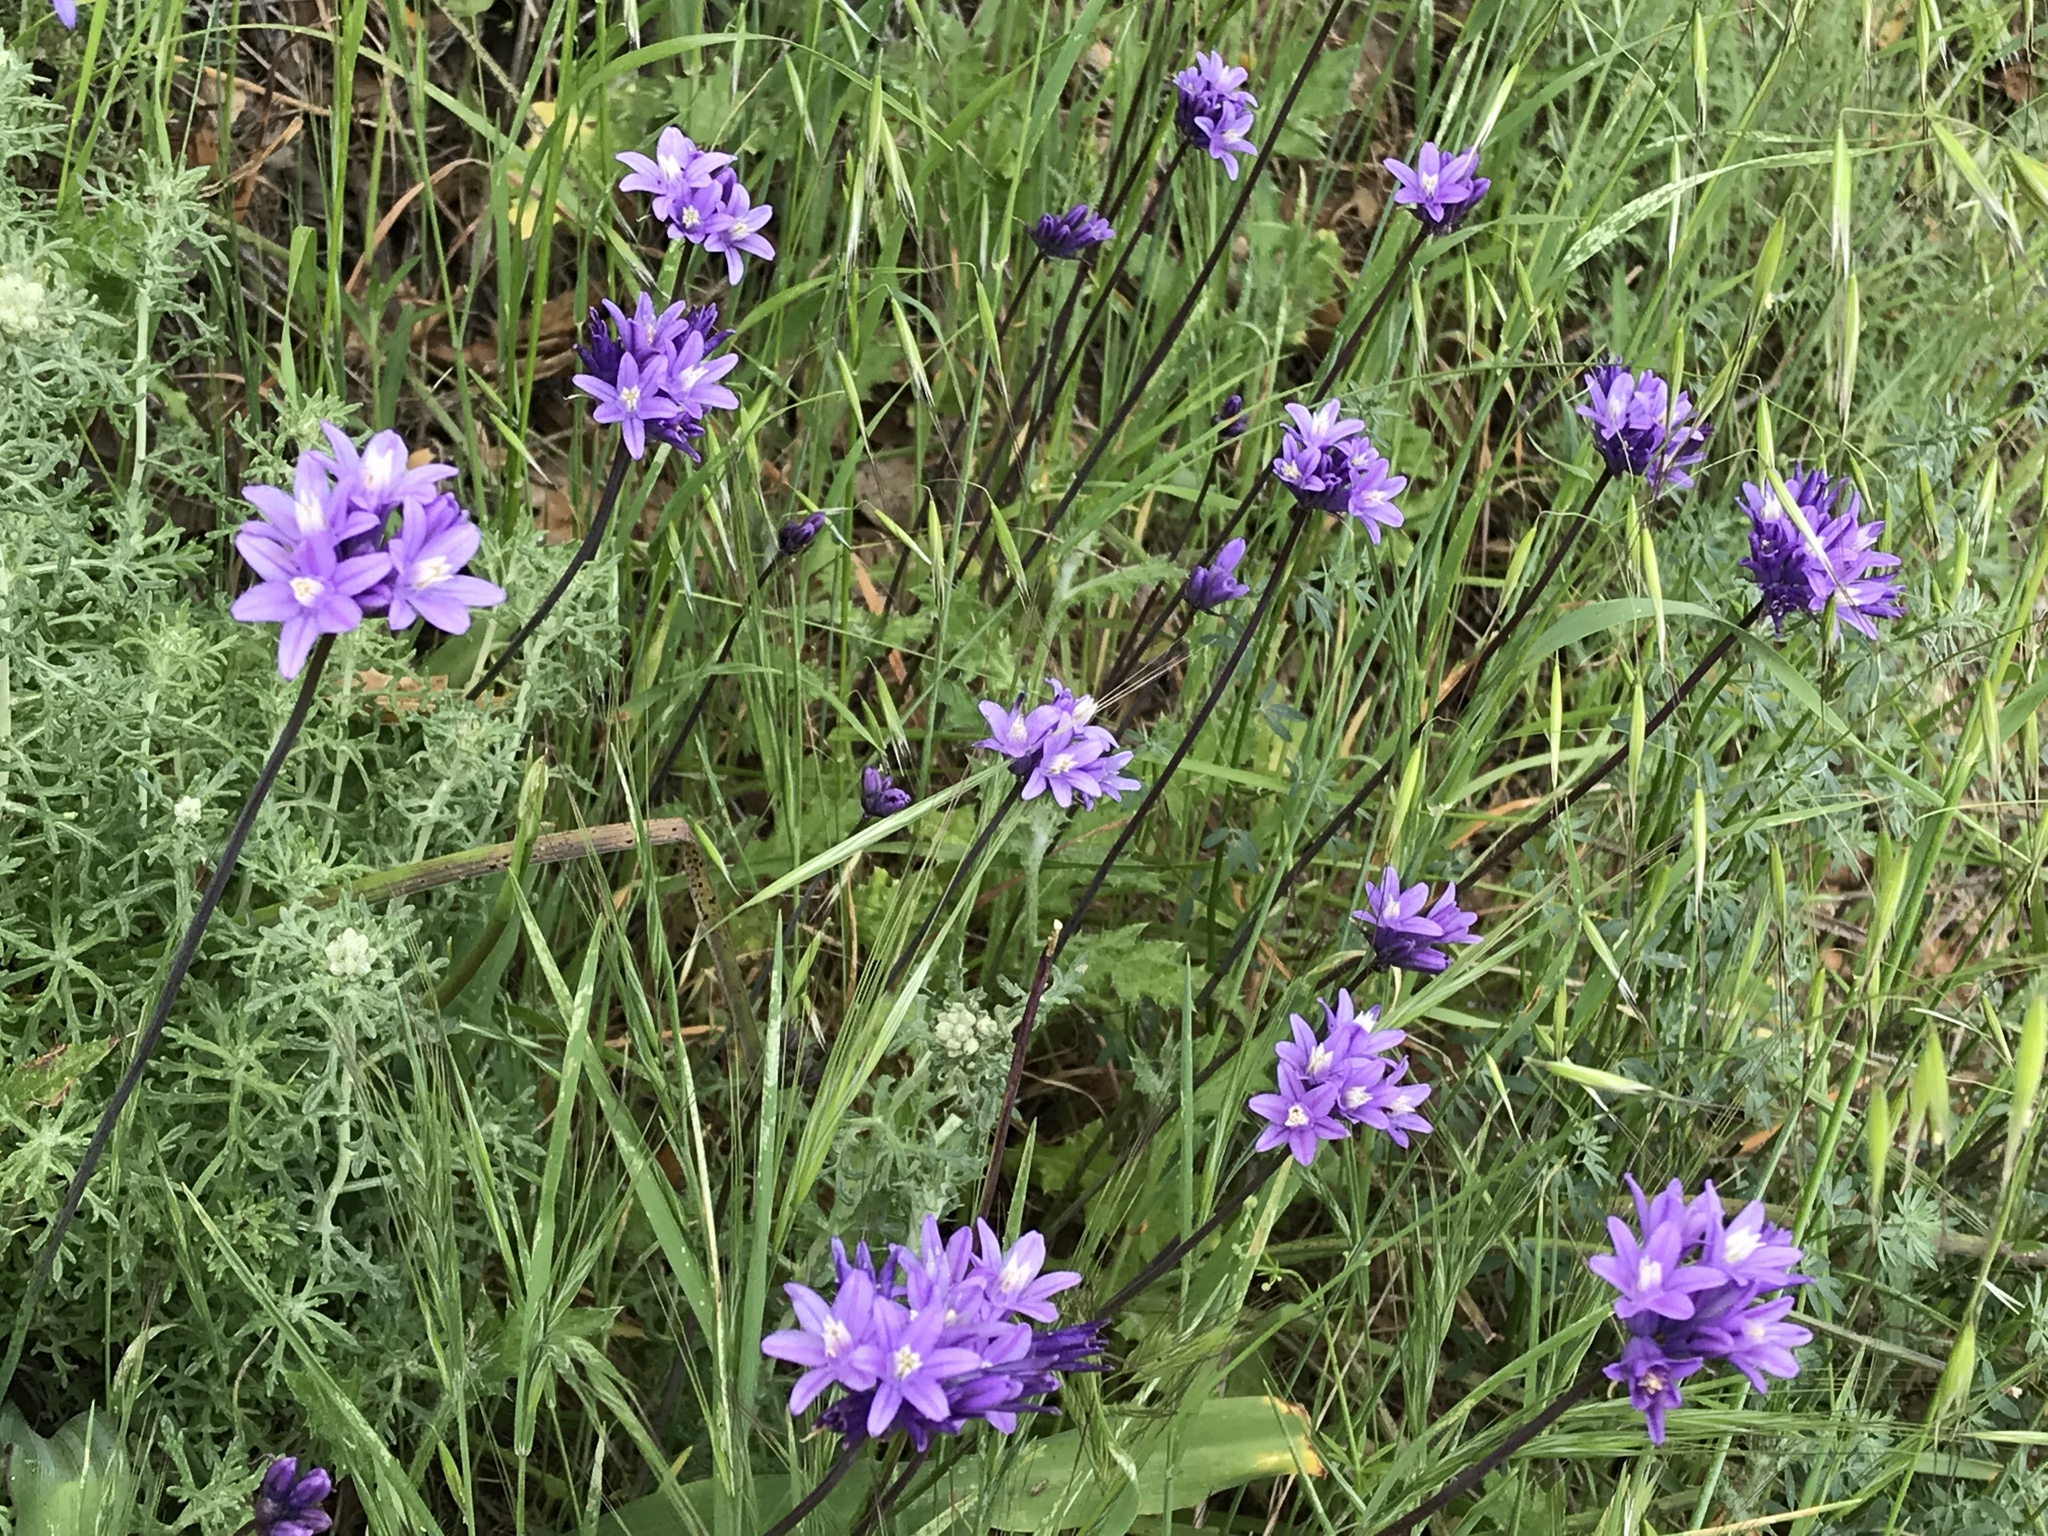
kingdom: Plantae
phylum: Tracheophyta
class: Liliopsida
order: Asparagales
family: Asparagaceae
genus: Dipterostemon
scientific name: Dipterostemon capitatus
